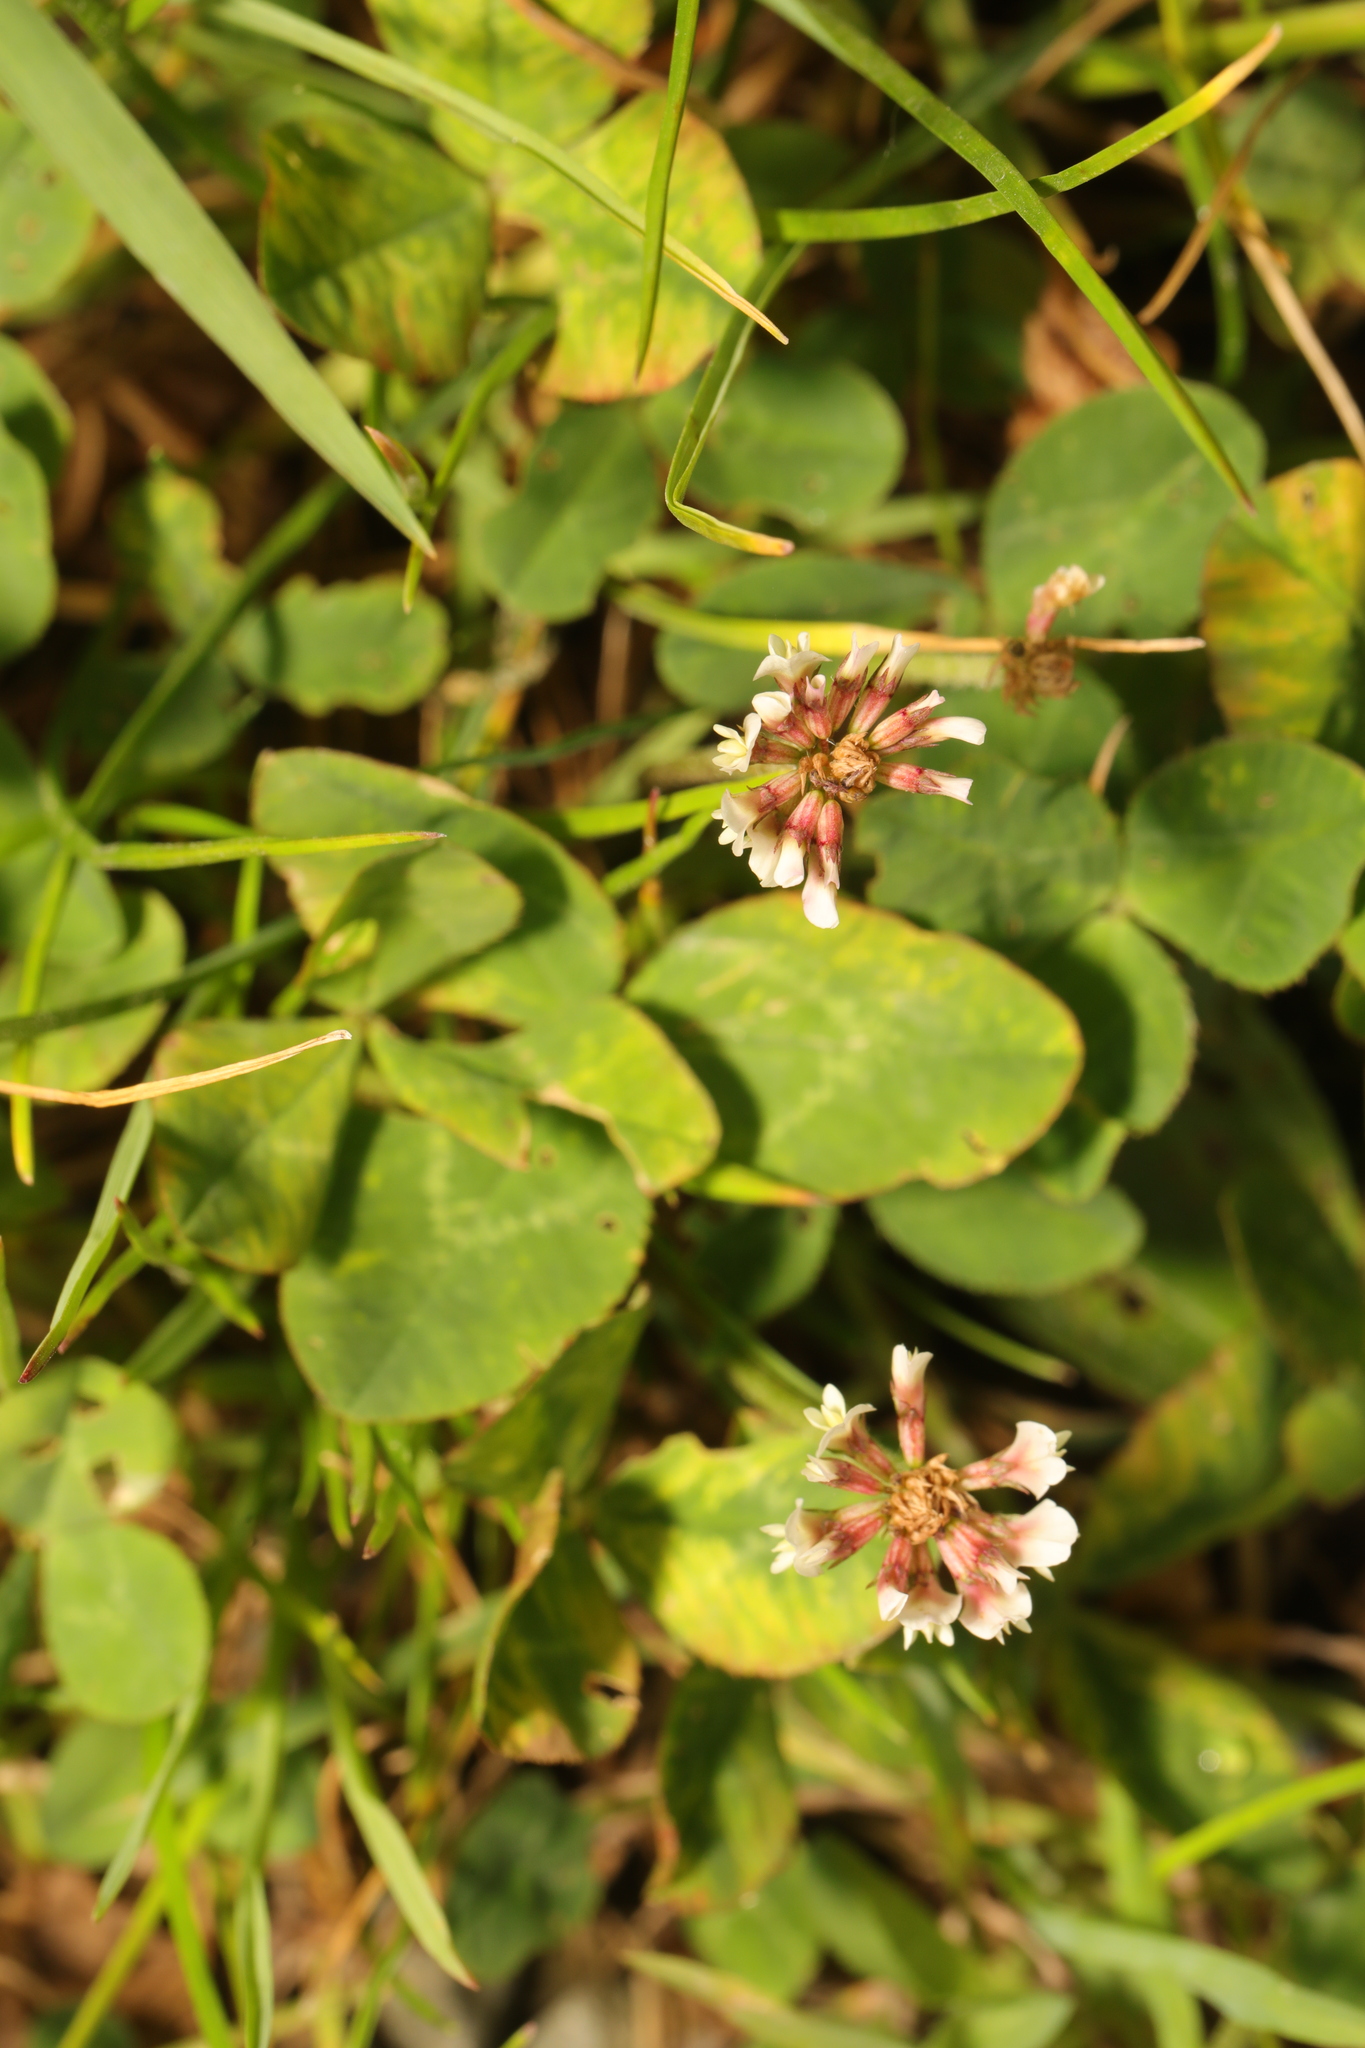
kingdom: Plantae
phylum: Tracheophyta
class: Magnoliopsida
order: Fabales
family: Fabaceae
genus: Trifolium
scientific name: Trifolium repens
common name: White clover
